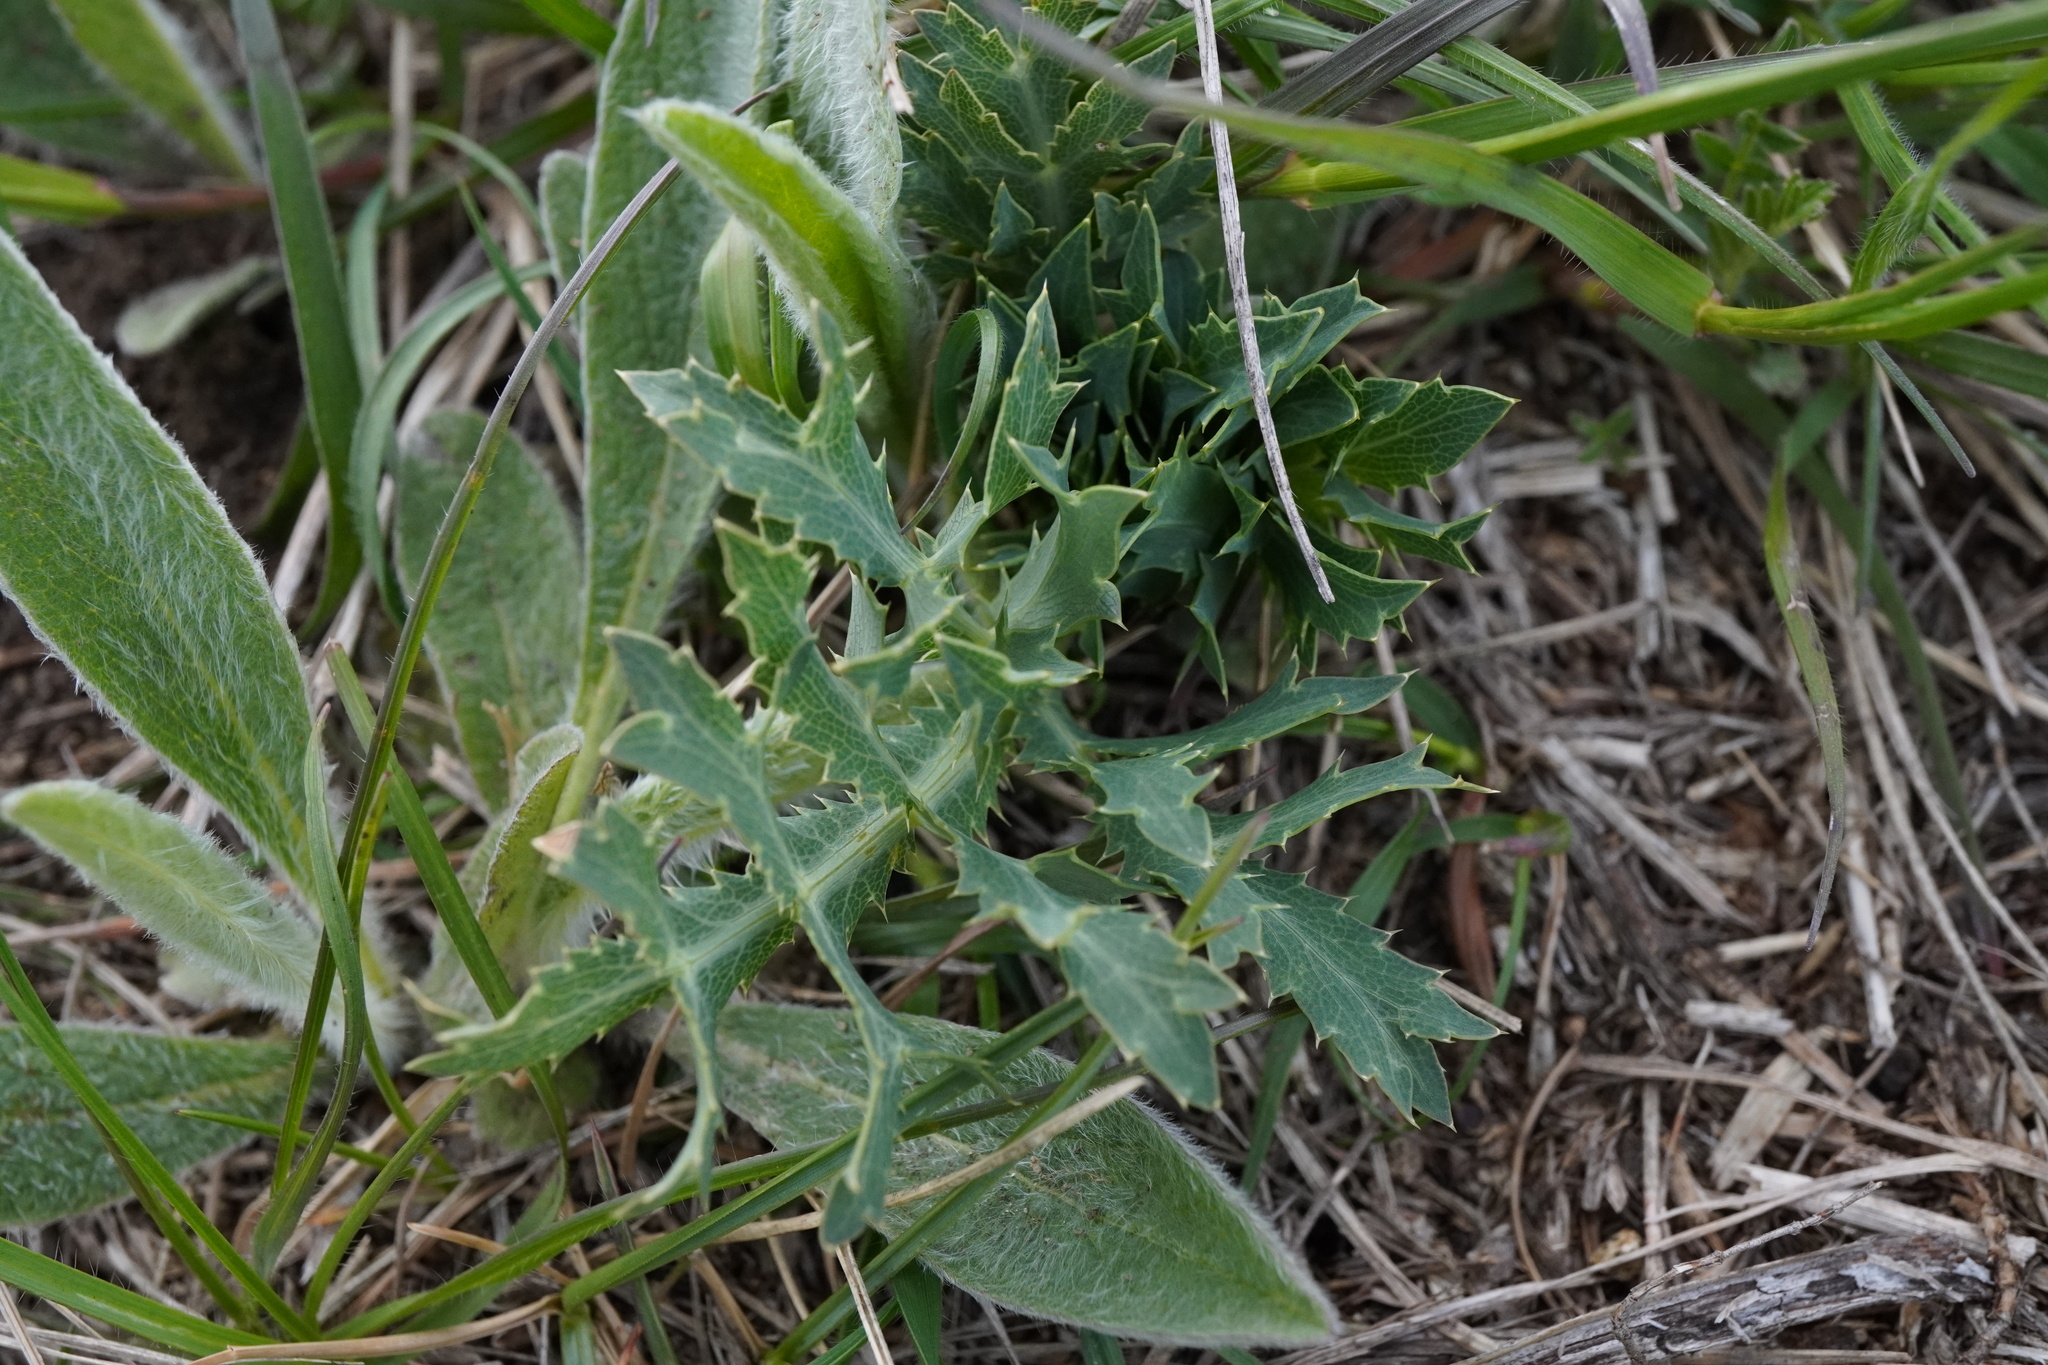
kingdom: Plantae
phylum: Tracheophyta
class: Magnoliopsida
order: Apiales
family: Apiaceae
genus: Eryngium
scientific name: Eryngium campestre
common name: Field eryngo
